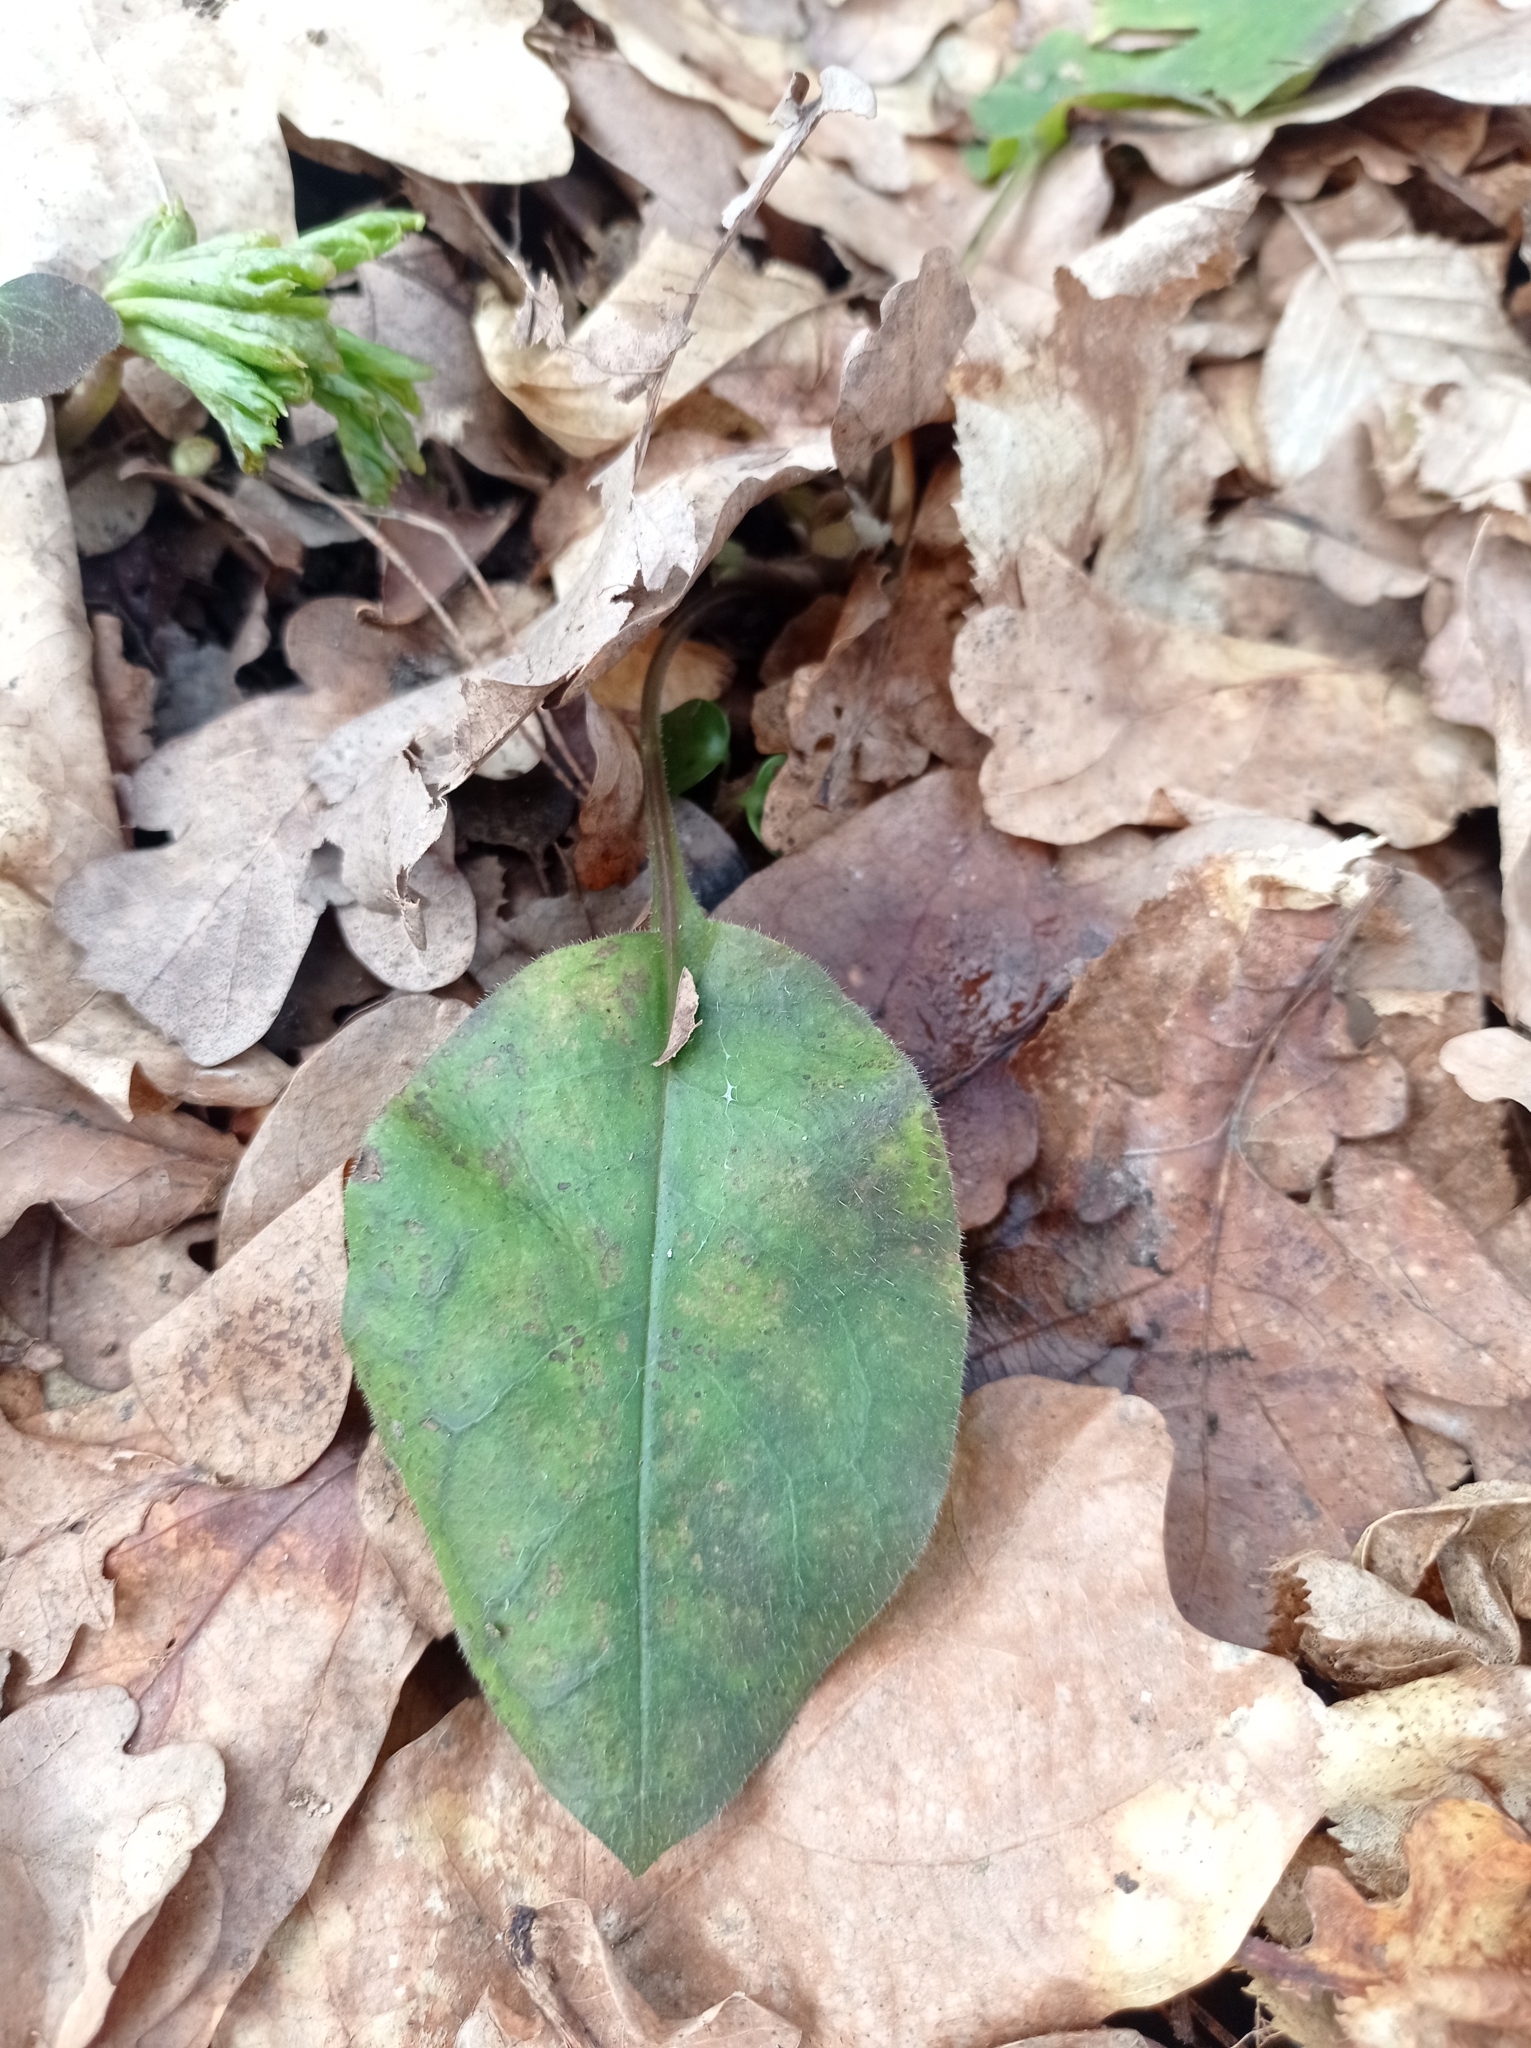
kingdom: Plantae
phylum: Tracheophyta
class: Magnoliopsida
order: Boraginales
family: Boraginaceae
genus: Pulmonaria
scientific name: Pulmonaria obscura
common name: Suffolk lungwort
